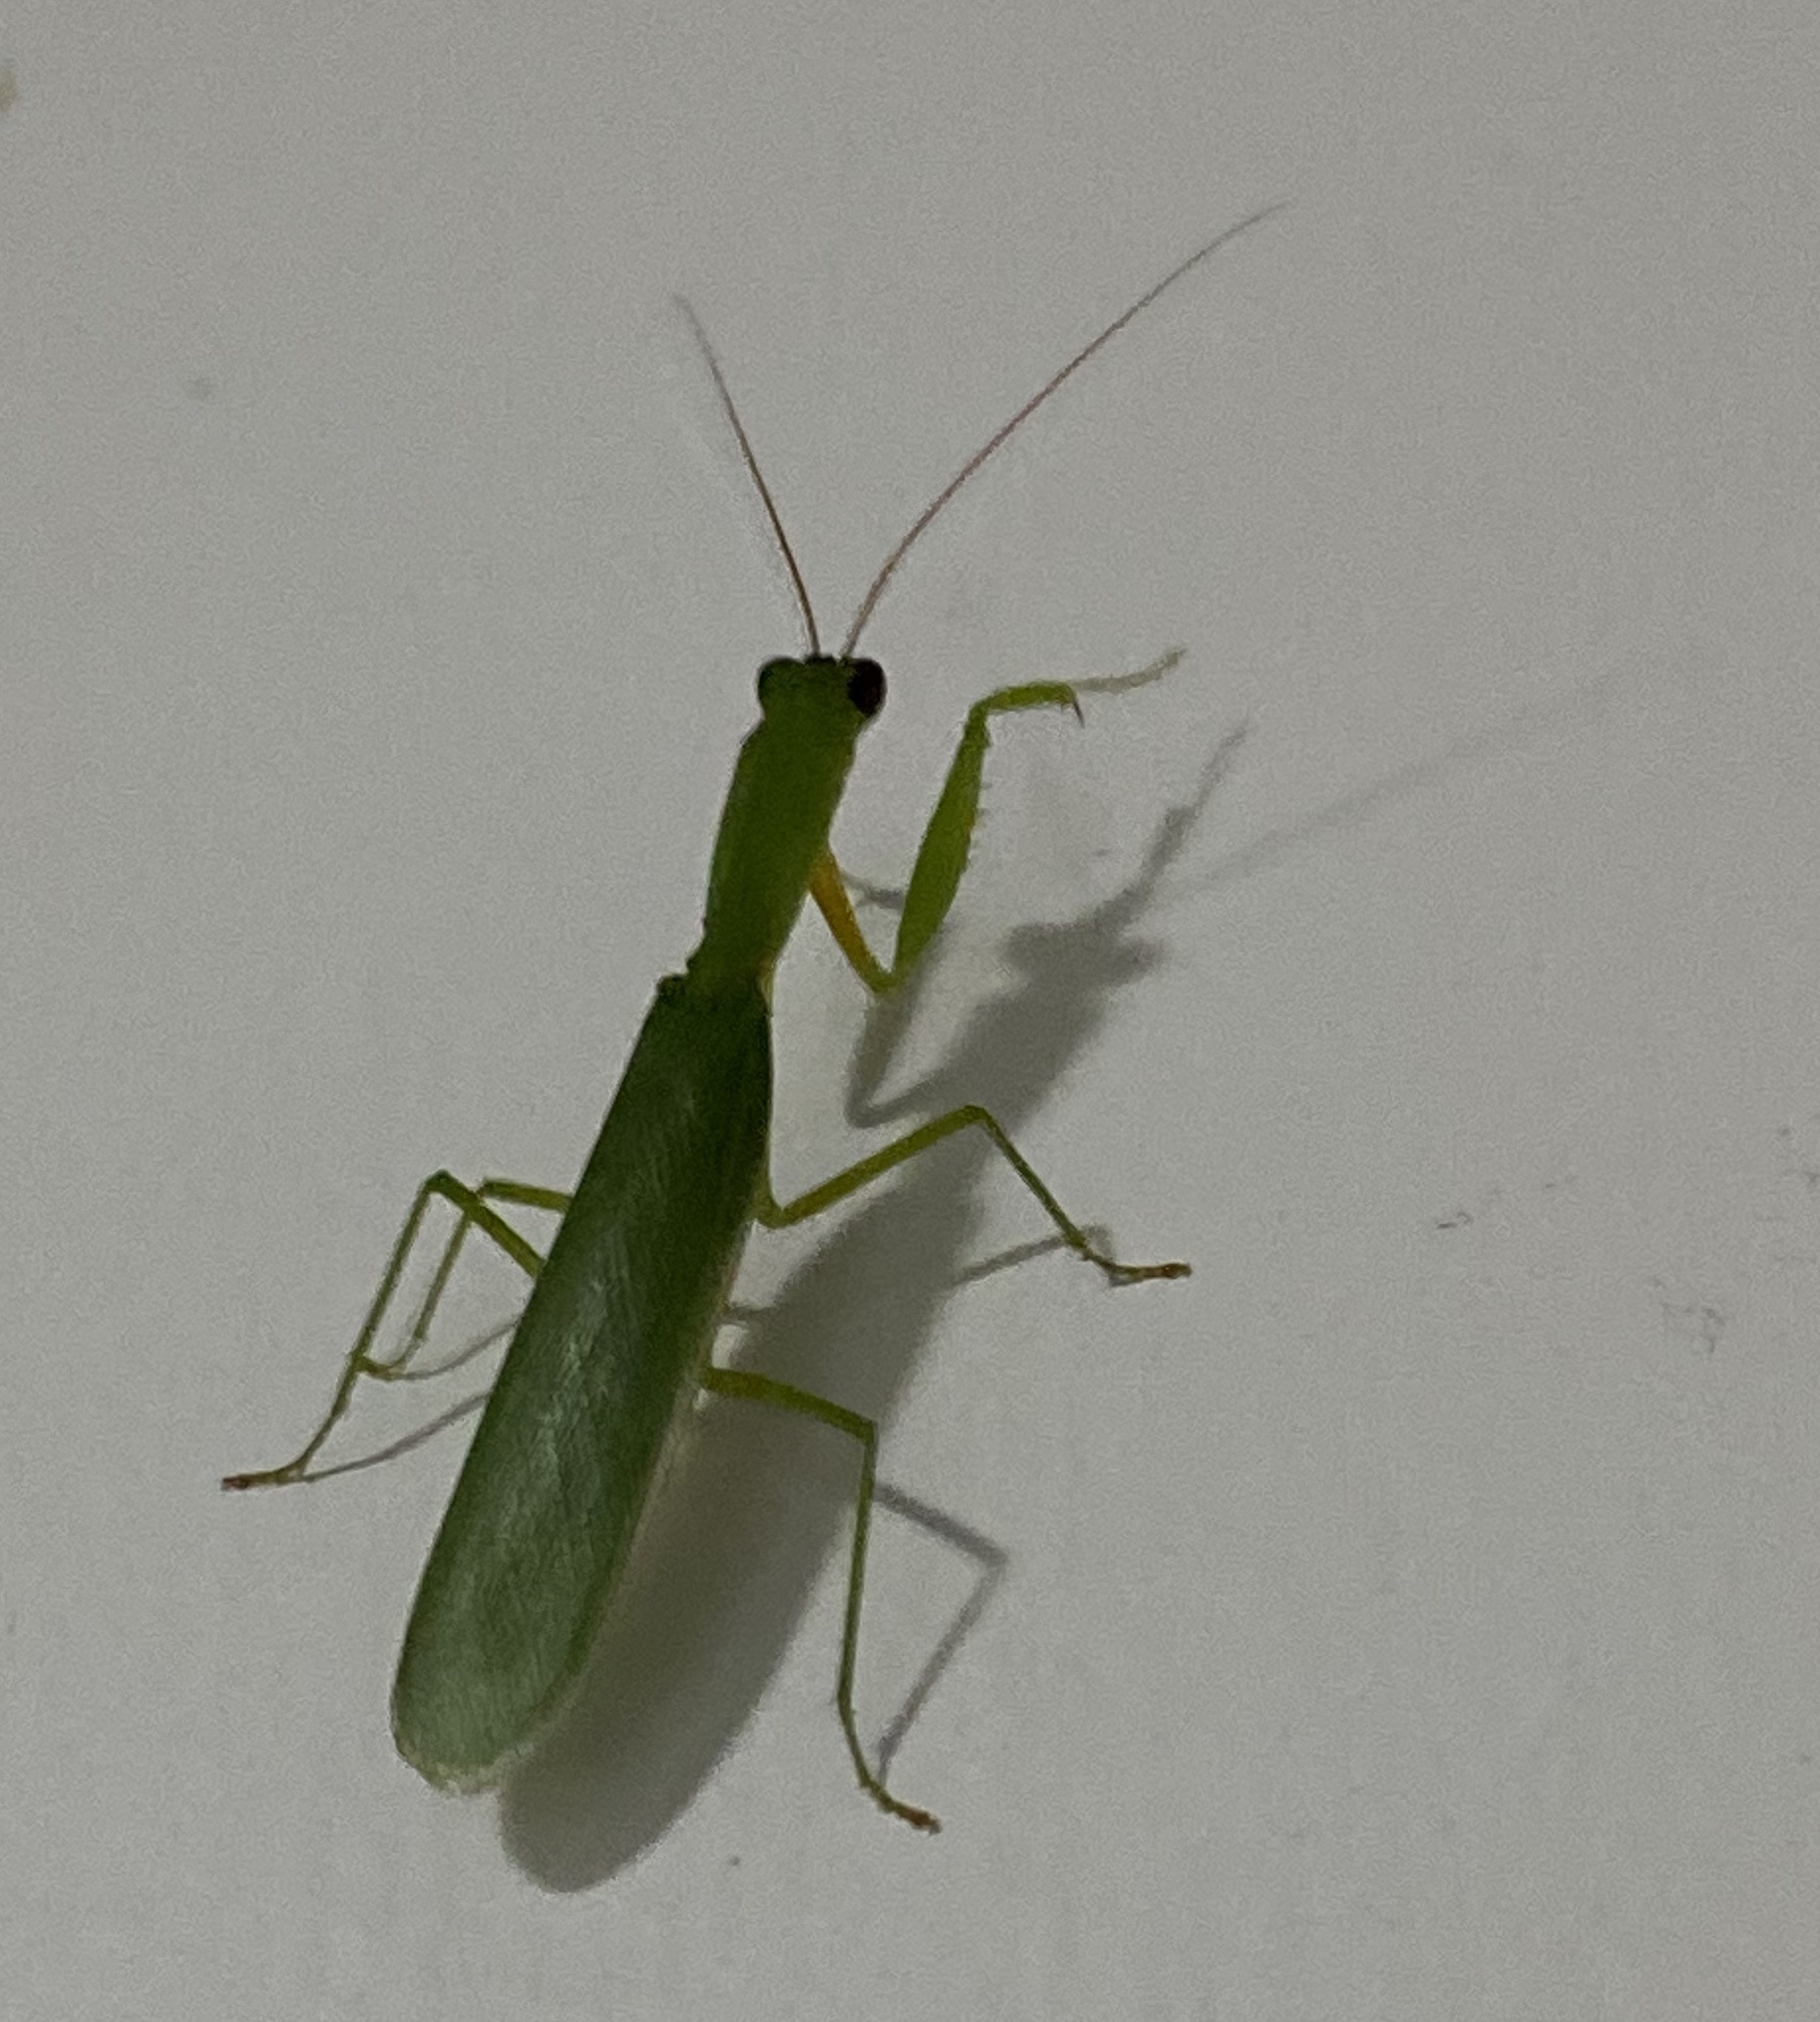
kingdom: Animalia
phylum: Arthropoda
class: Insecta
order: Mantodea
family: Mantidae
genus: Orthodera
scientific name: Orthodera ministralis
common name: Mantis
